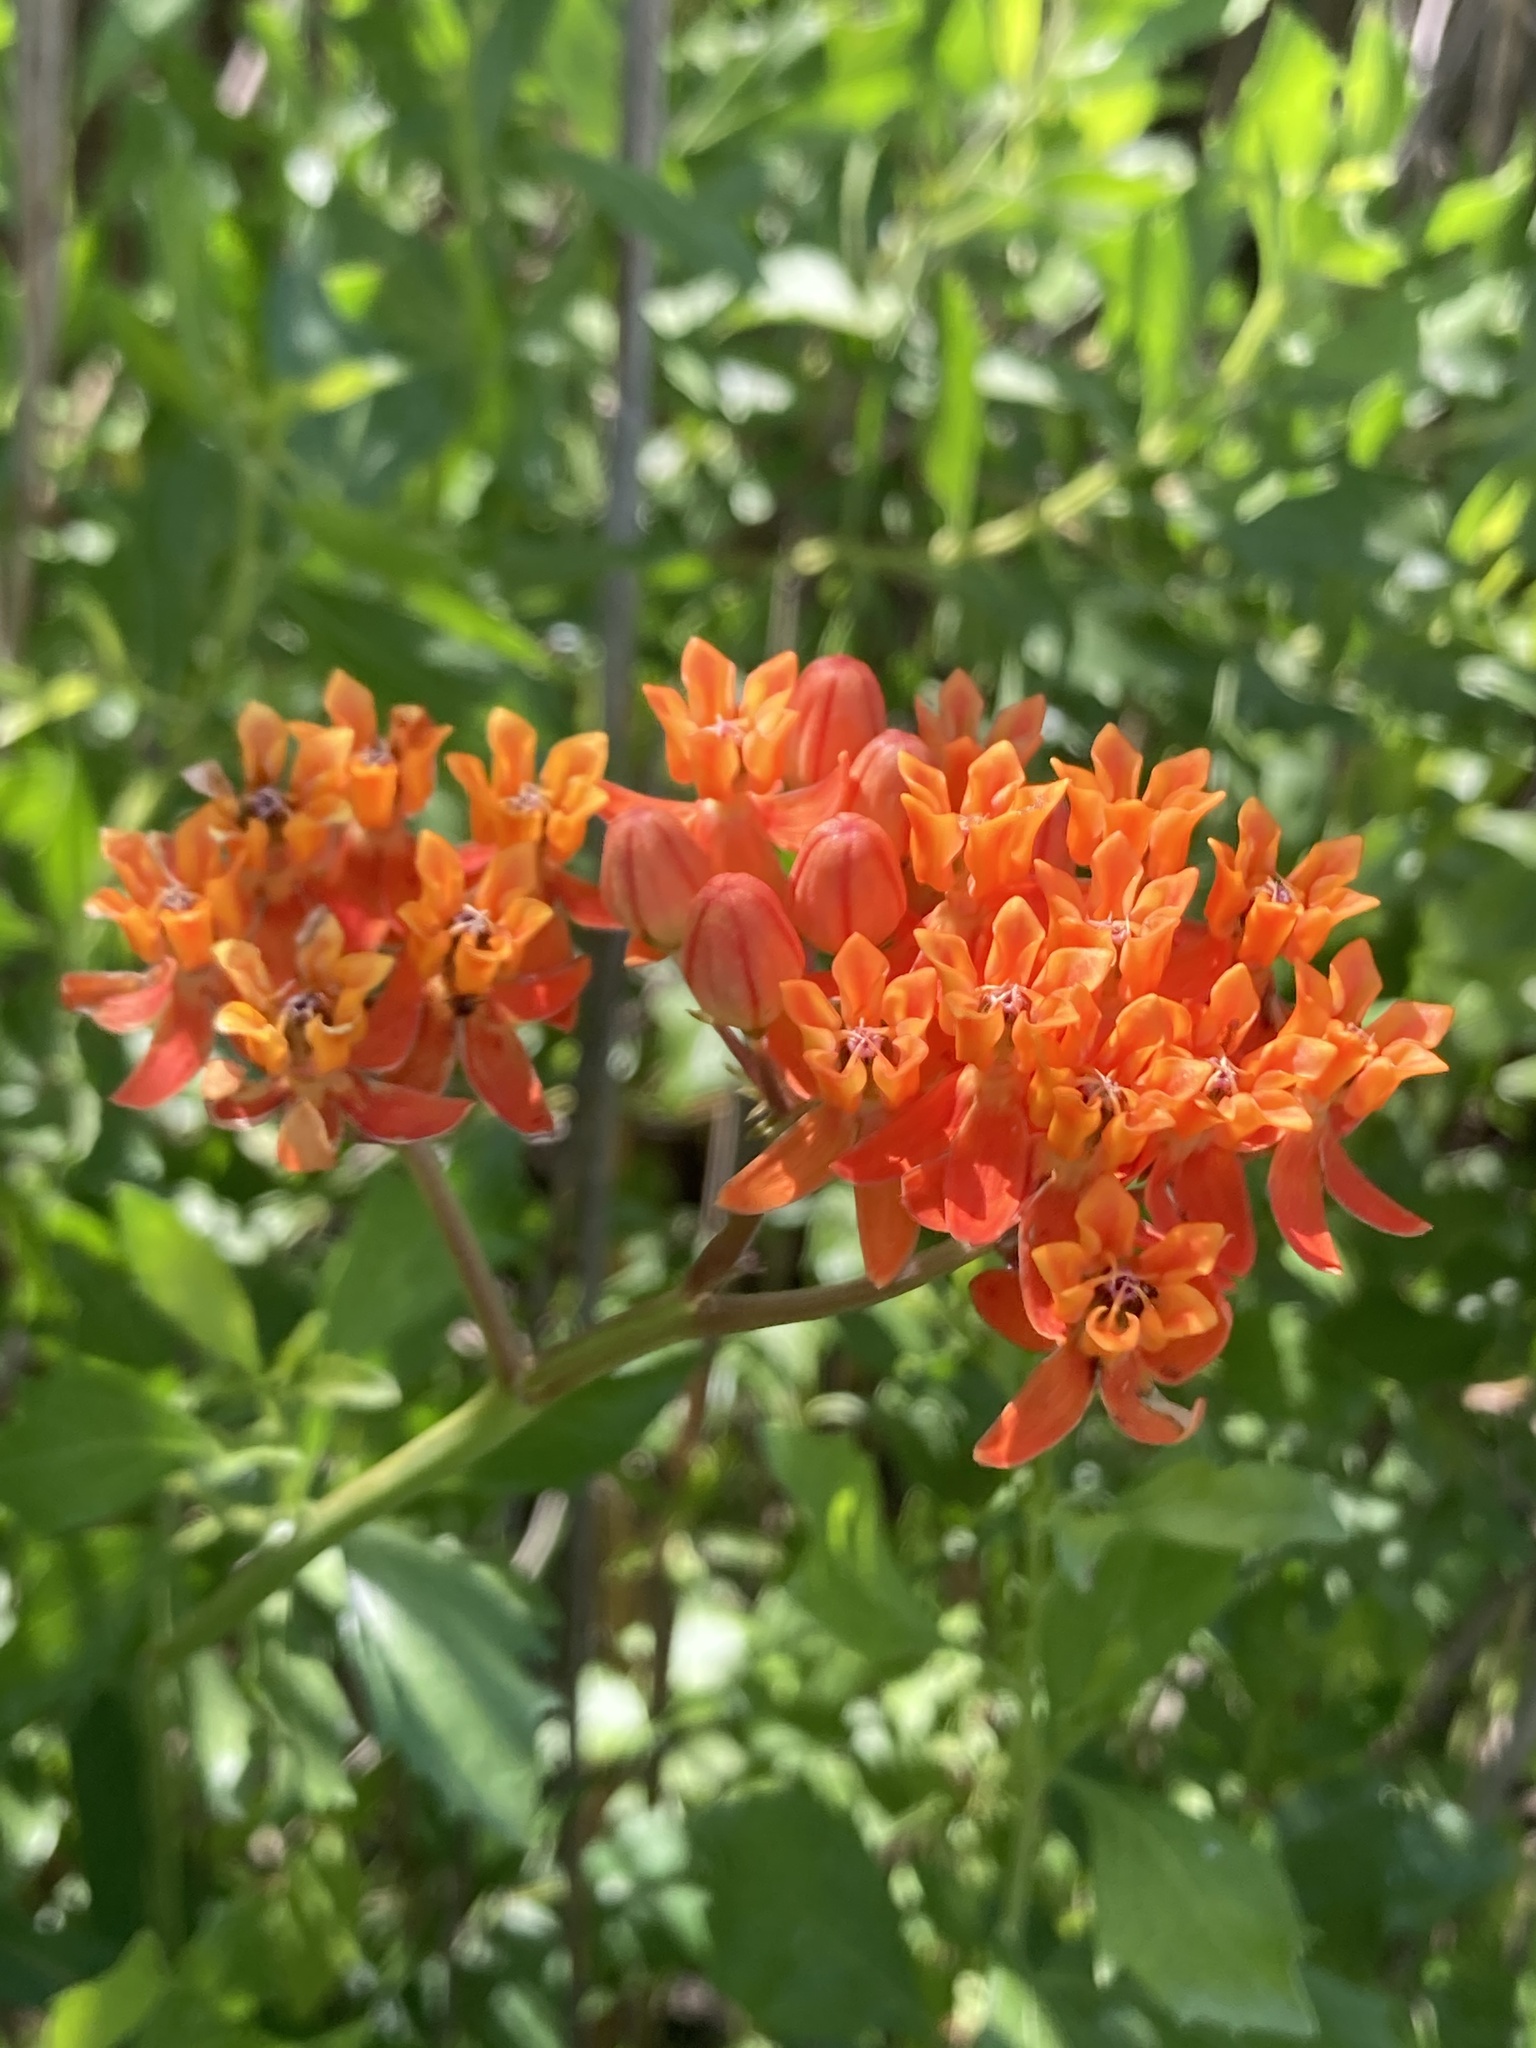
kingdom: Plantae
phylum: Tracheophyta
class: Magnoliopsida
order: Gentianales
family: Apocynaceae
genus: Asclepias
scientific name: Asclepias lanceolata
